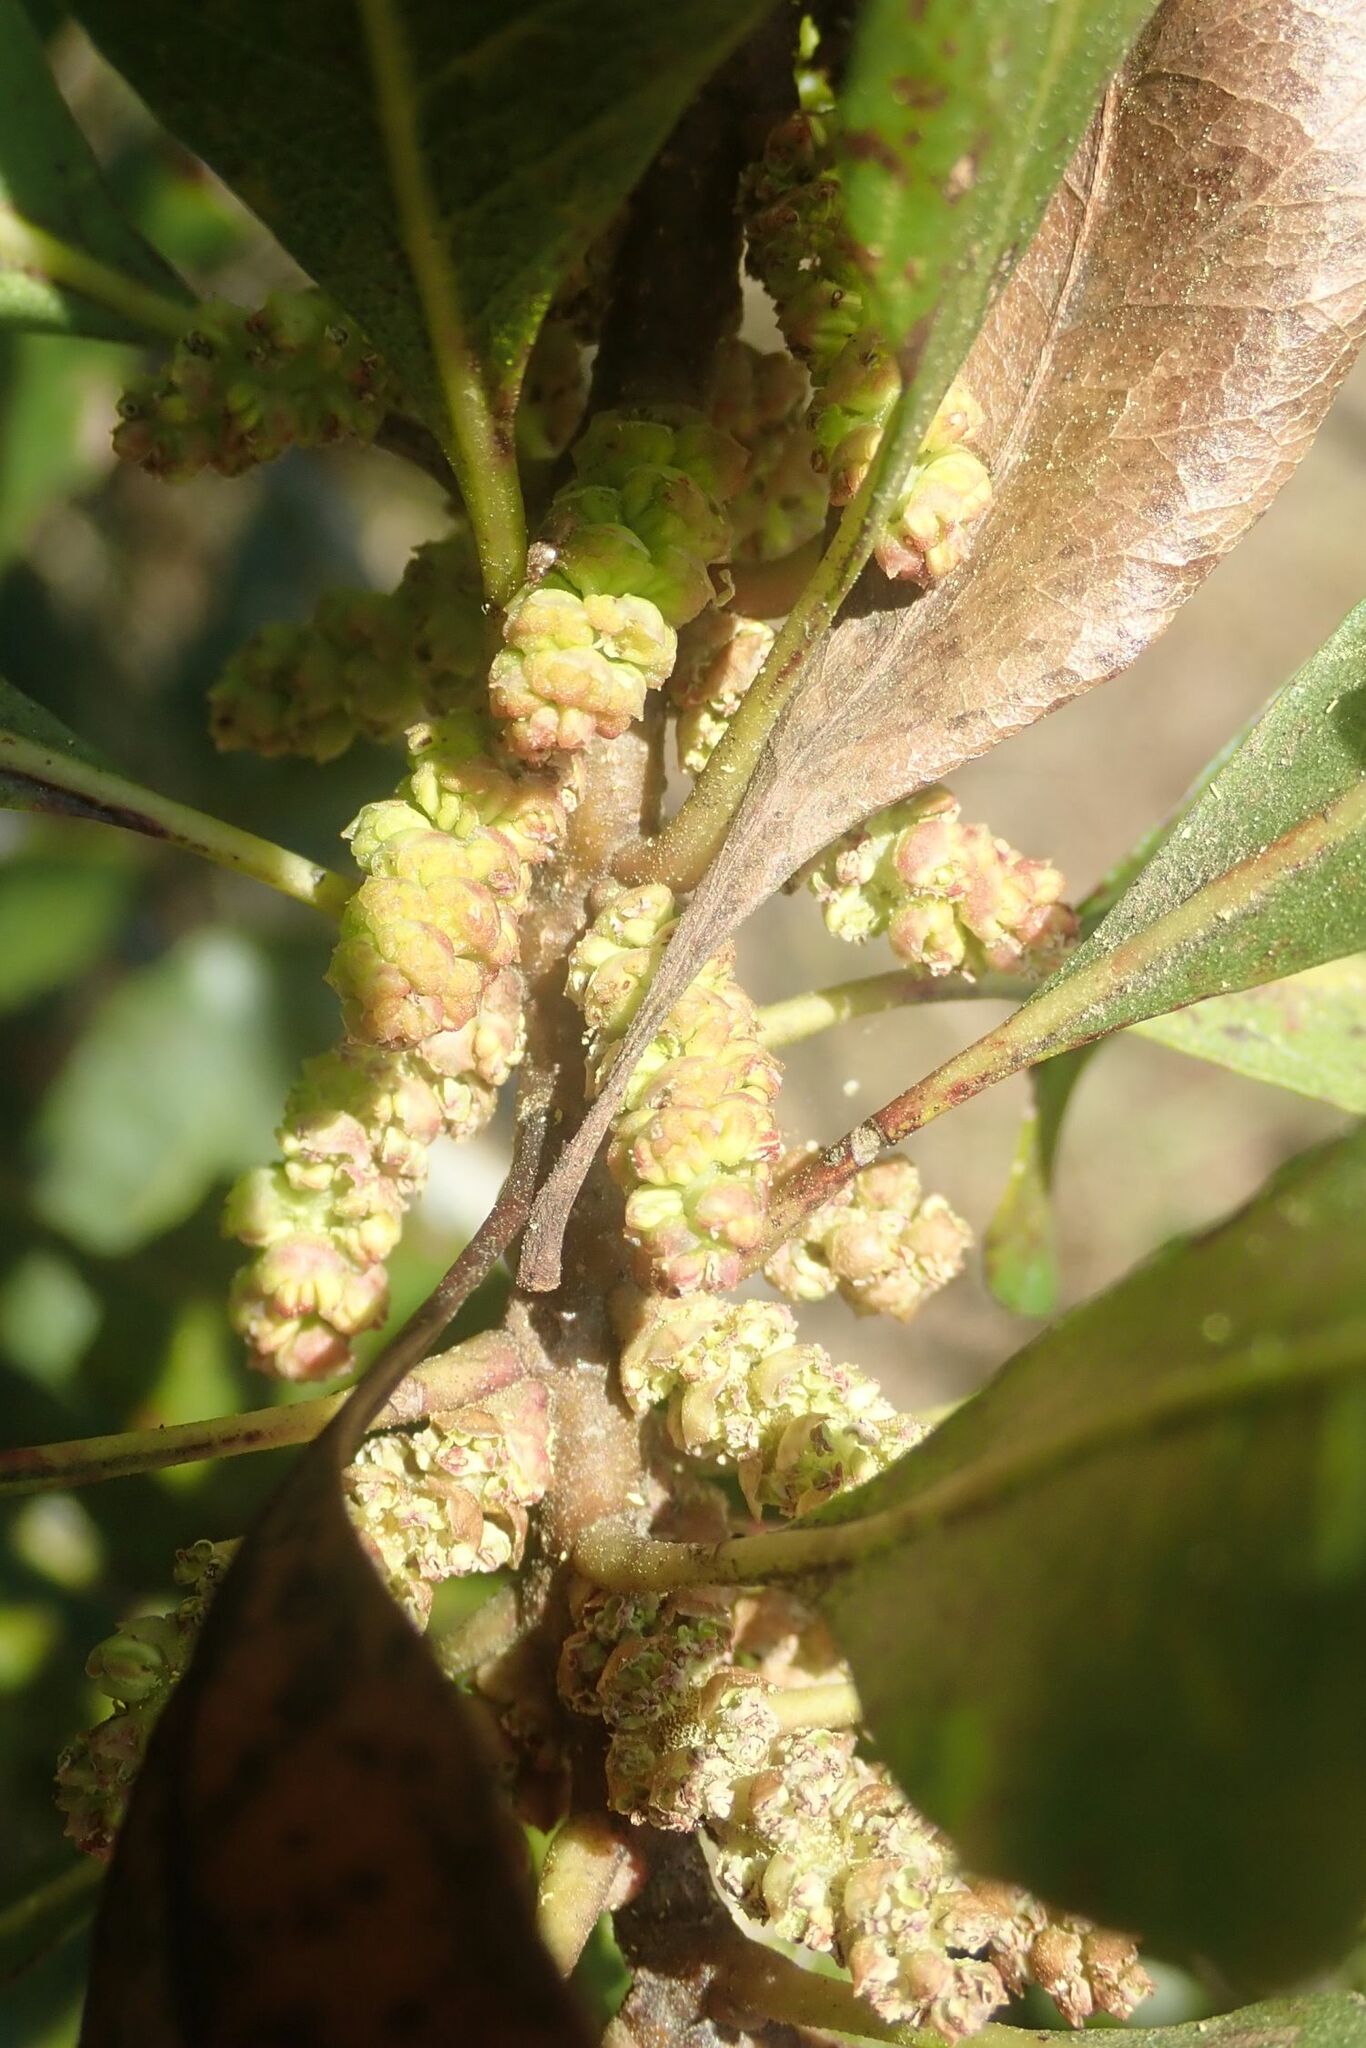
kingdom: Plantae
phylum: Tracheophyta
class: Magnoliopsida
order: Fagales
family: Myricaceae
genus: Morella
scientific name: Morella pilulifera
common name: Broad-leaved waxberry
